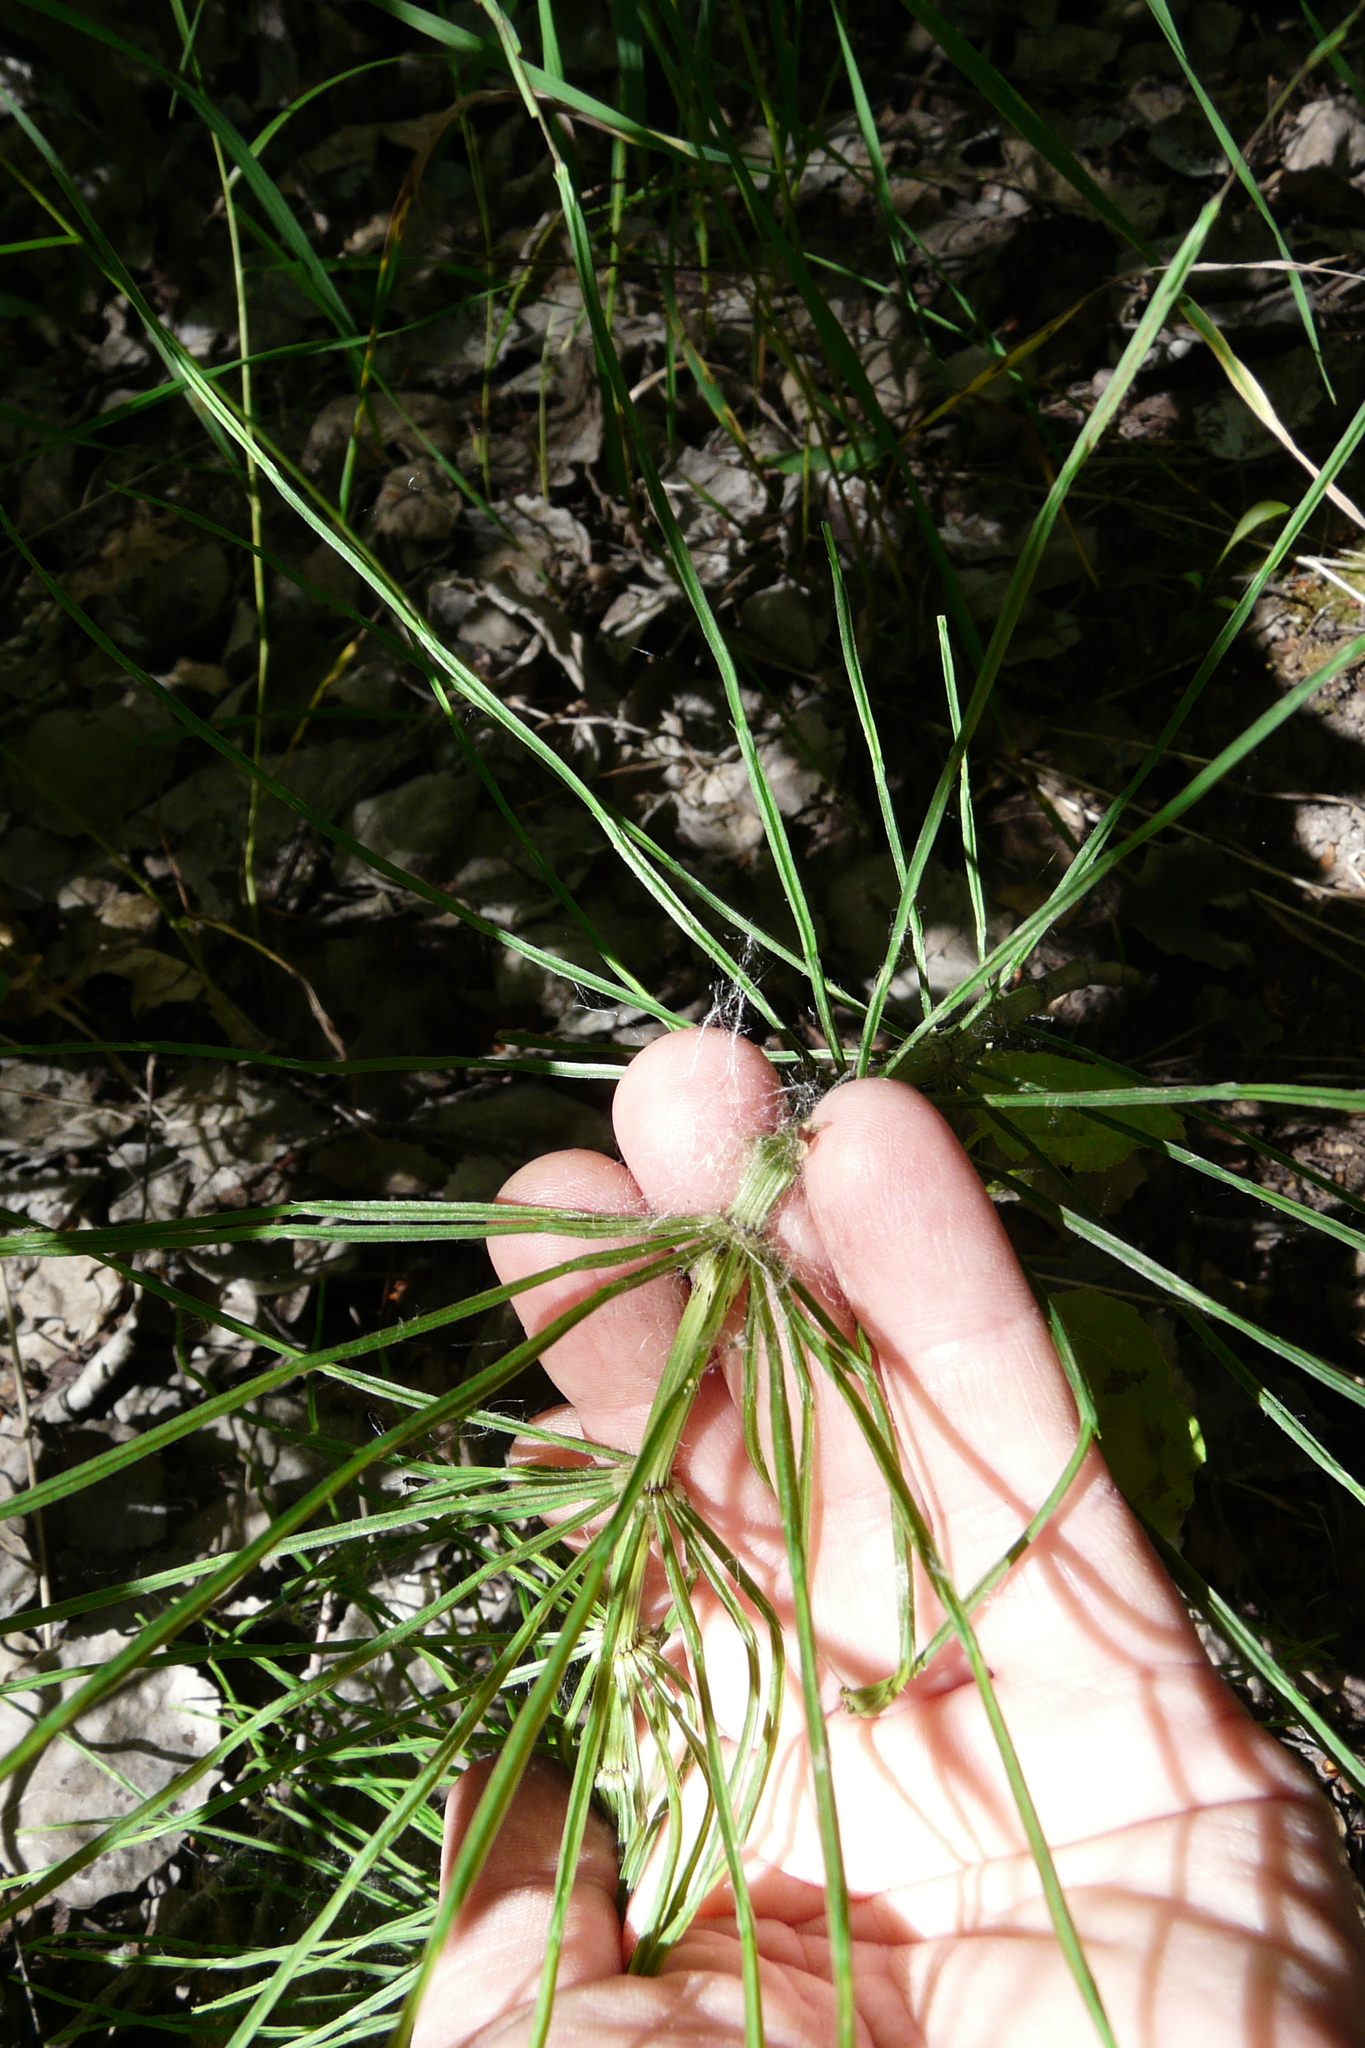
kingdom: Plantae
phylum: Tracheophyta
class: Polypodiopsida
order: Equisetales
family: Equisetaceae
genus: Equisetum
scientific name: Equisetum arvense
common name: Field horsetail
